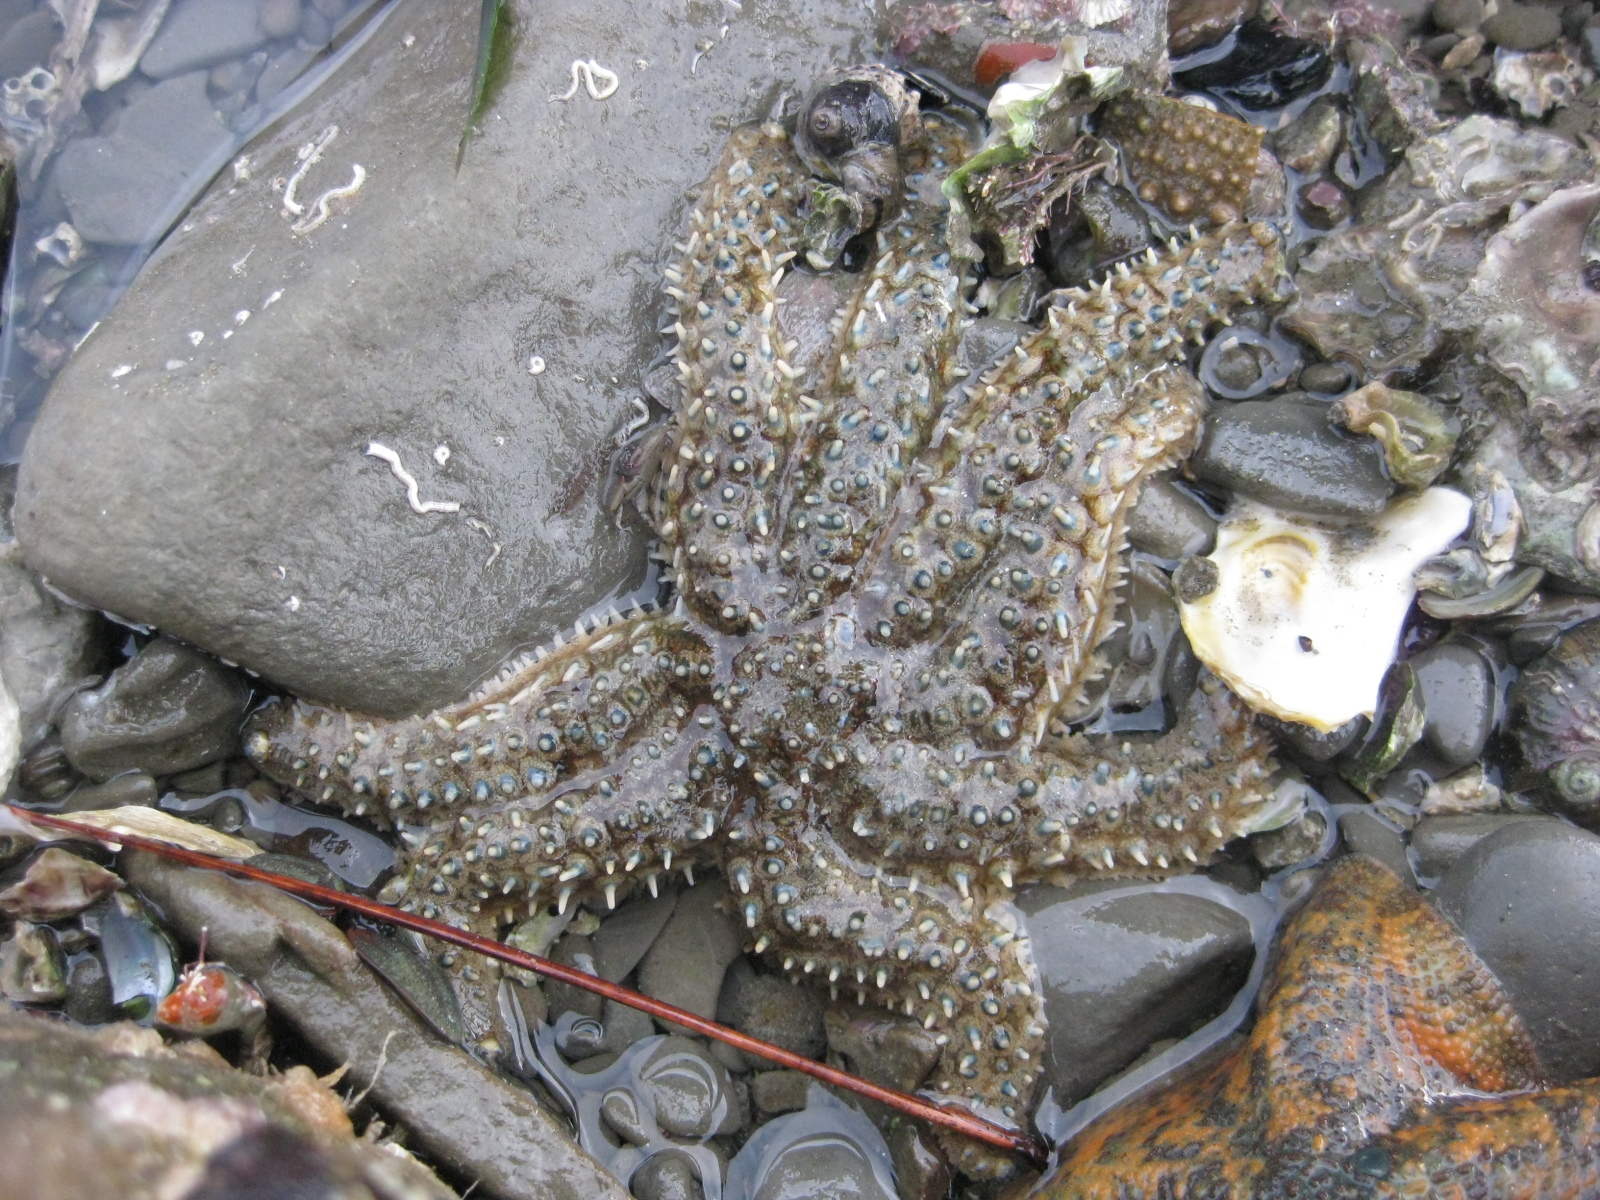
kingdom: Animalia
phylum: Echinodermata
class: Asteroidea
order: Forcipulatida
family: Asteriidae
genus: Coscinasterias
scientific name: Coscinasterias muricata
